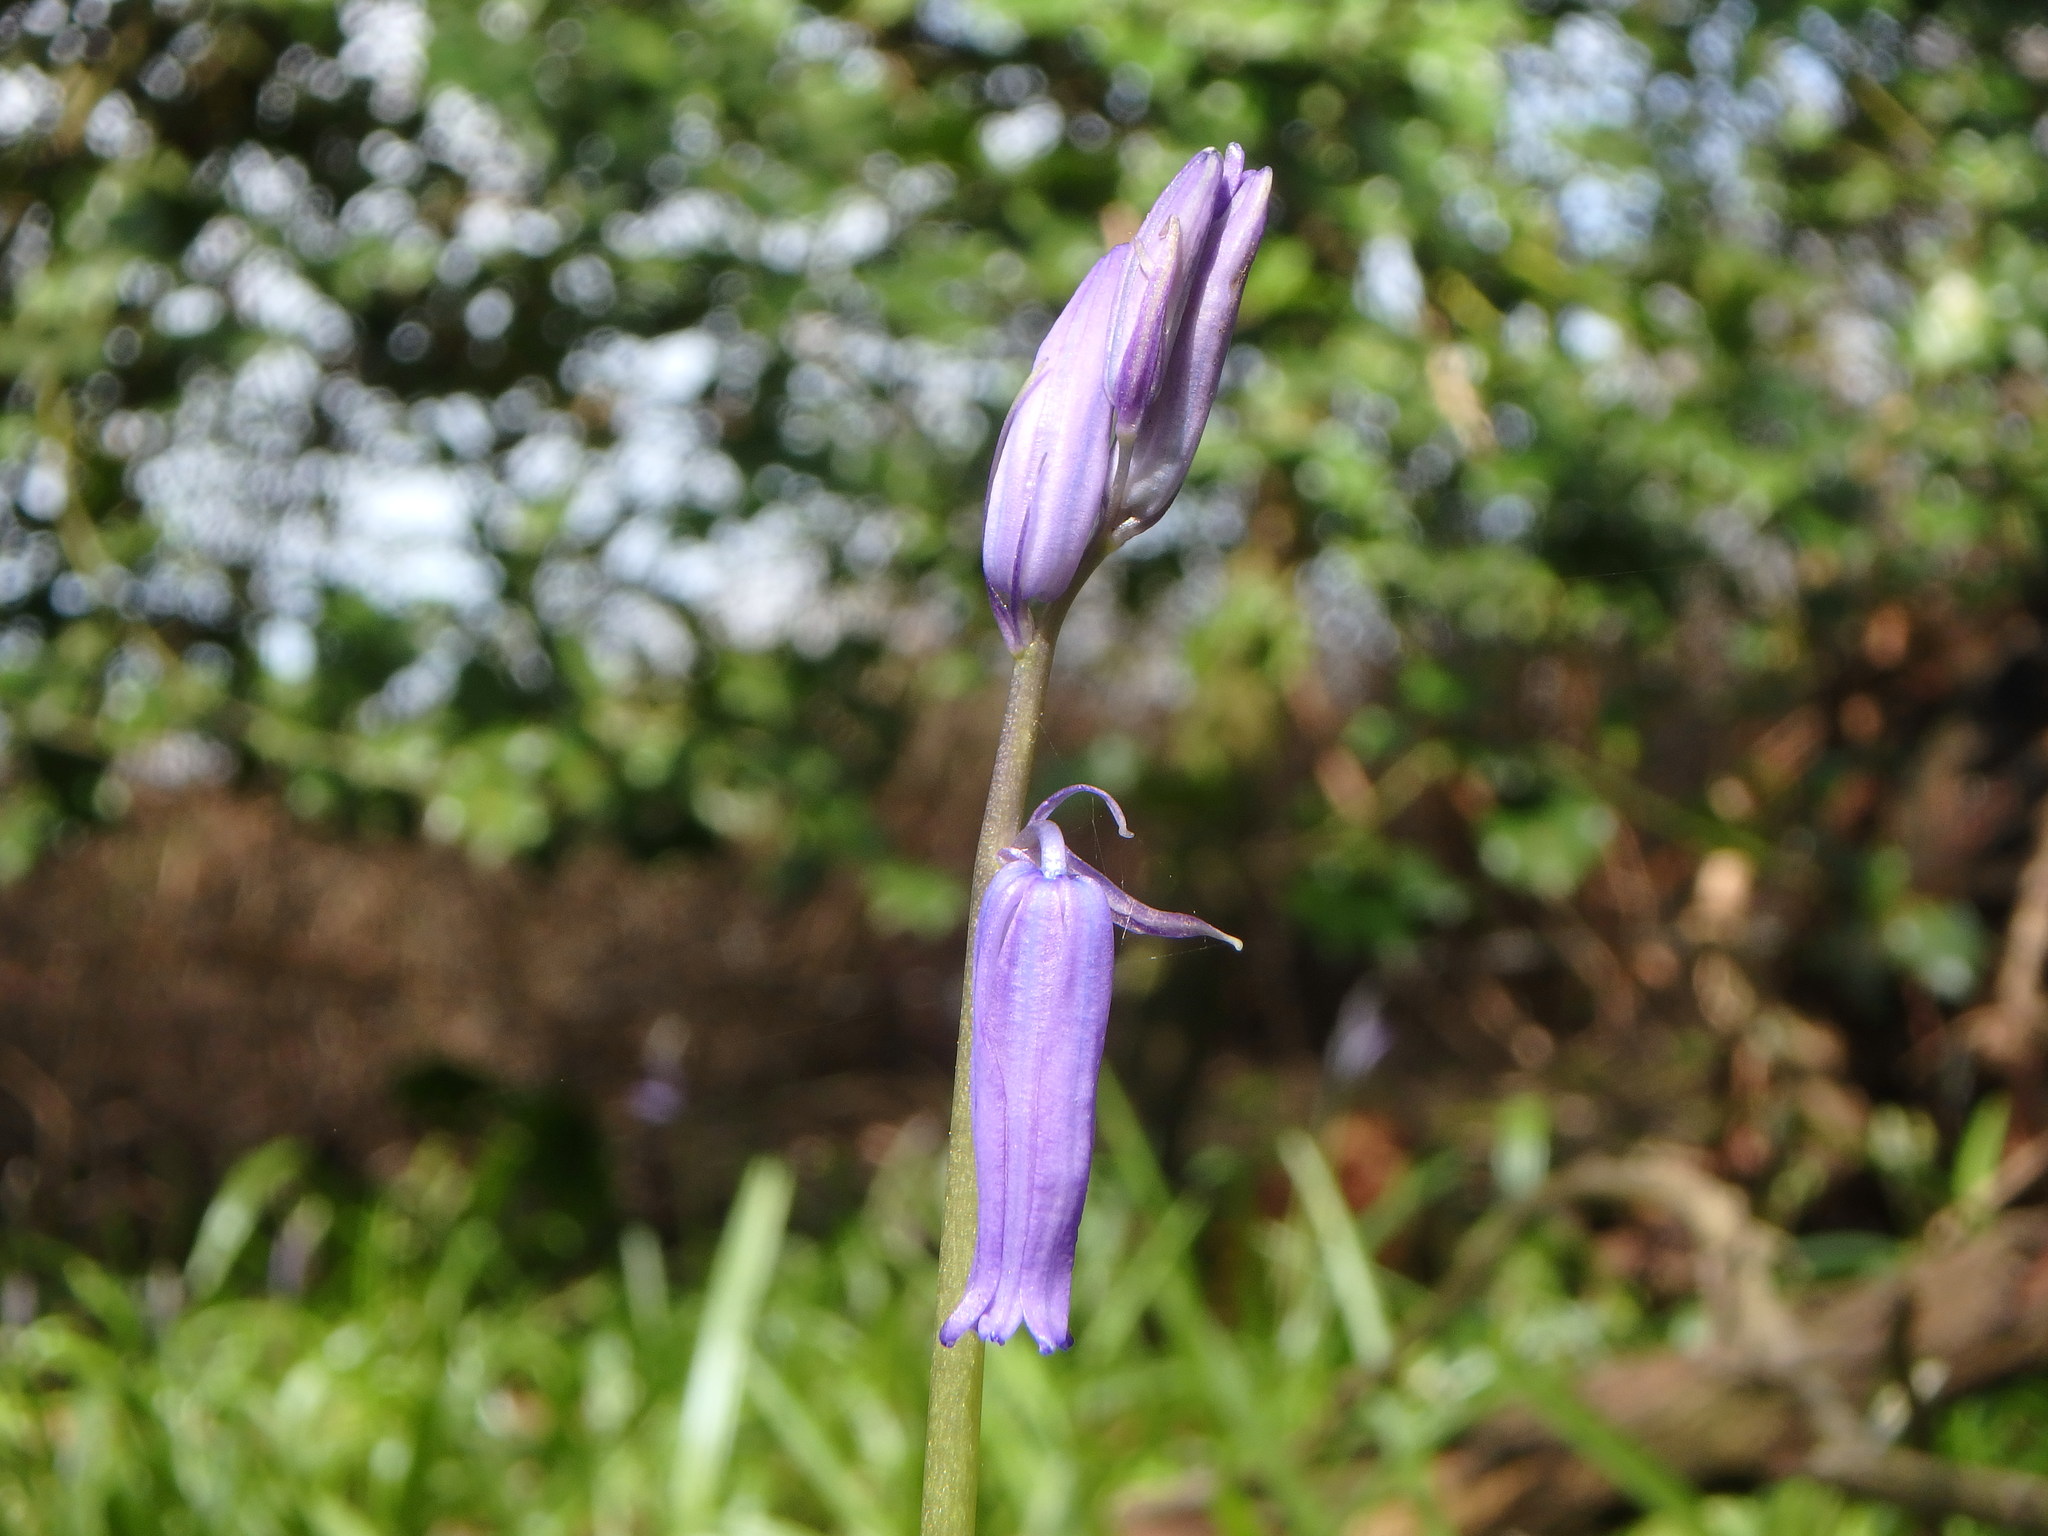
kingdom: Plantae
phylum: Tracheophyta
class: Liliopsida
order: Asparagales
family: Asparagaceae
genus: Hyacinthoides
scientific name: Hyacinthoides non-scripta
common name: Bluebell
